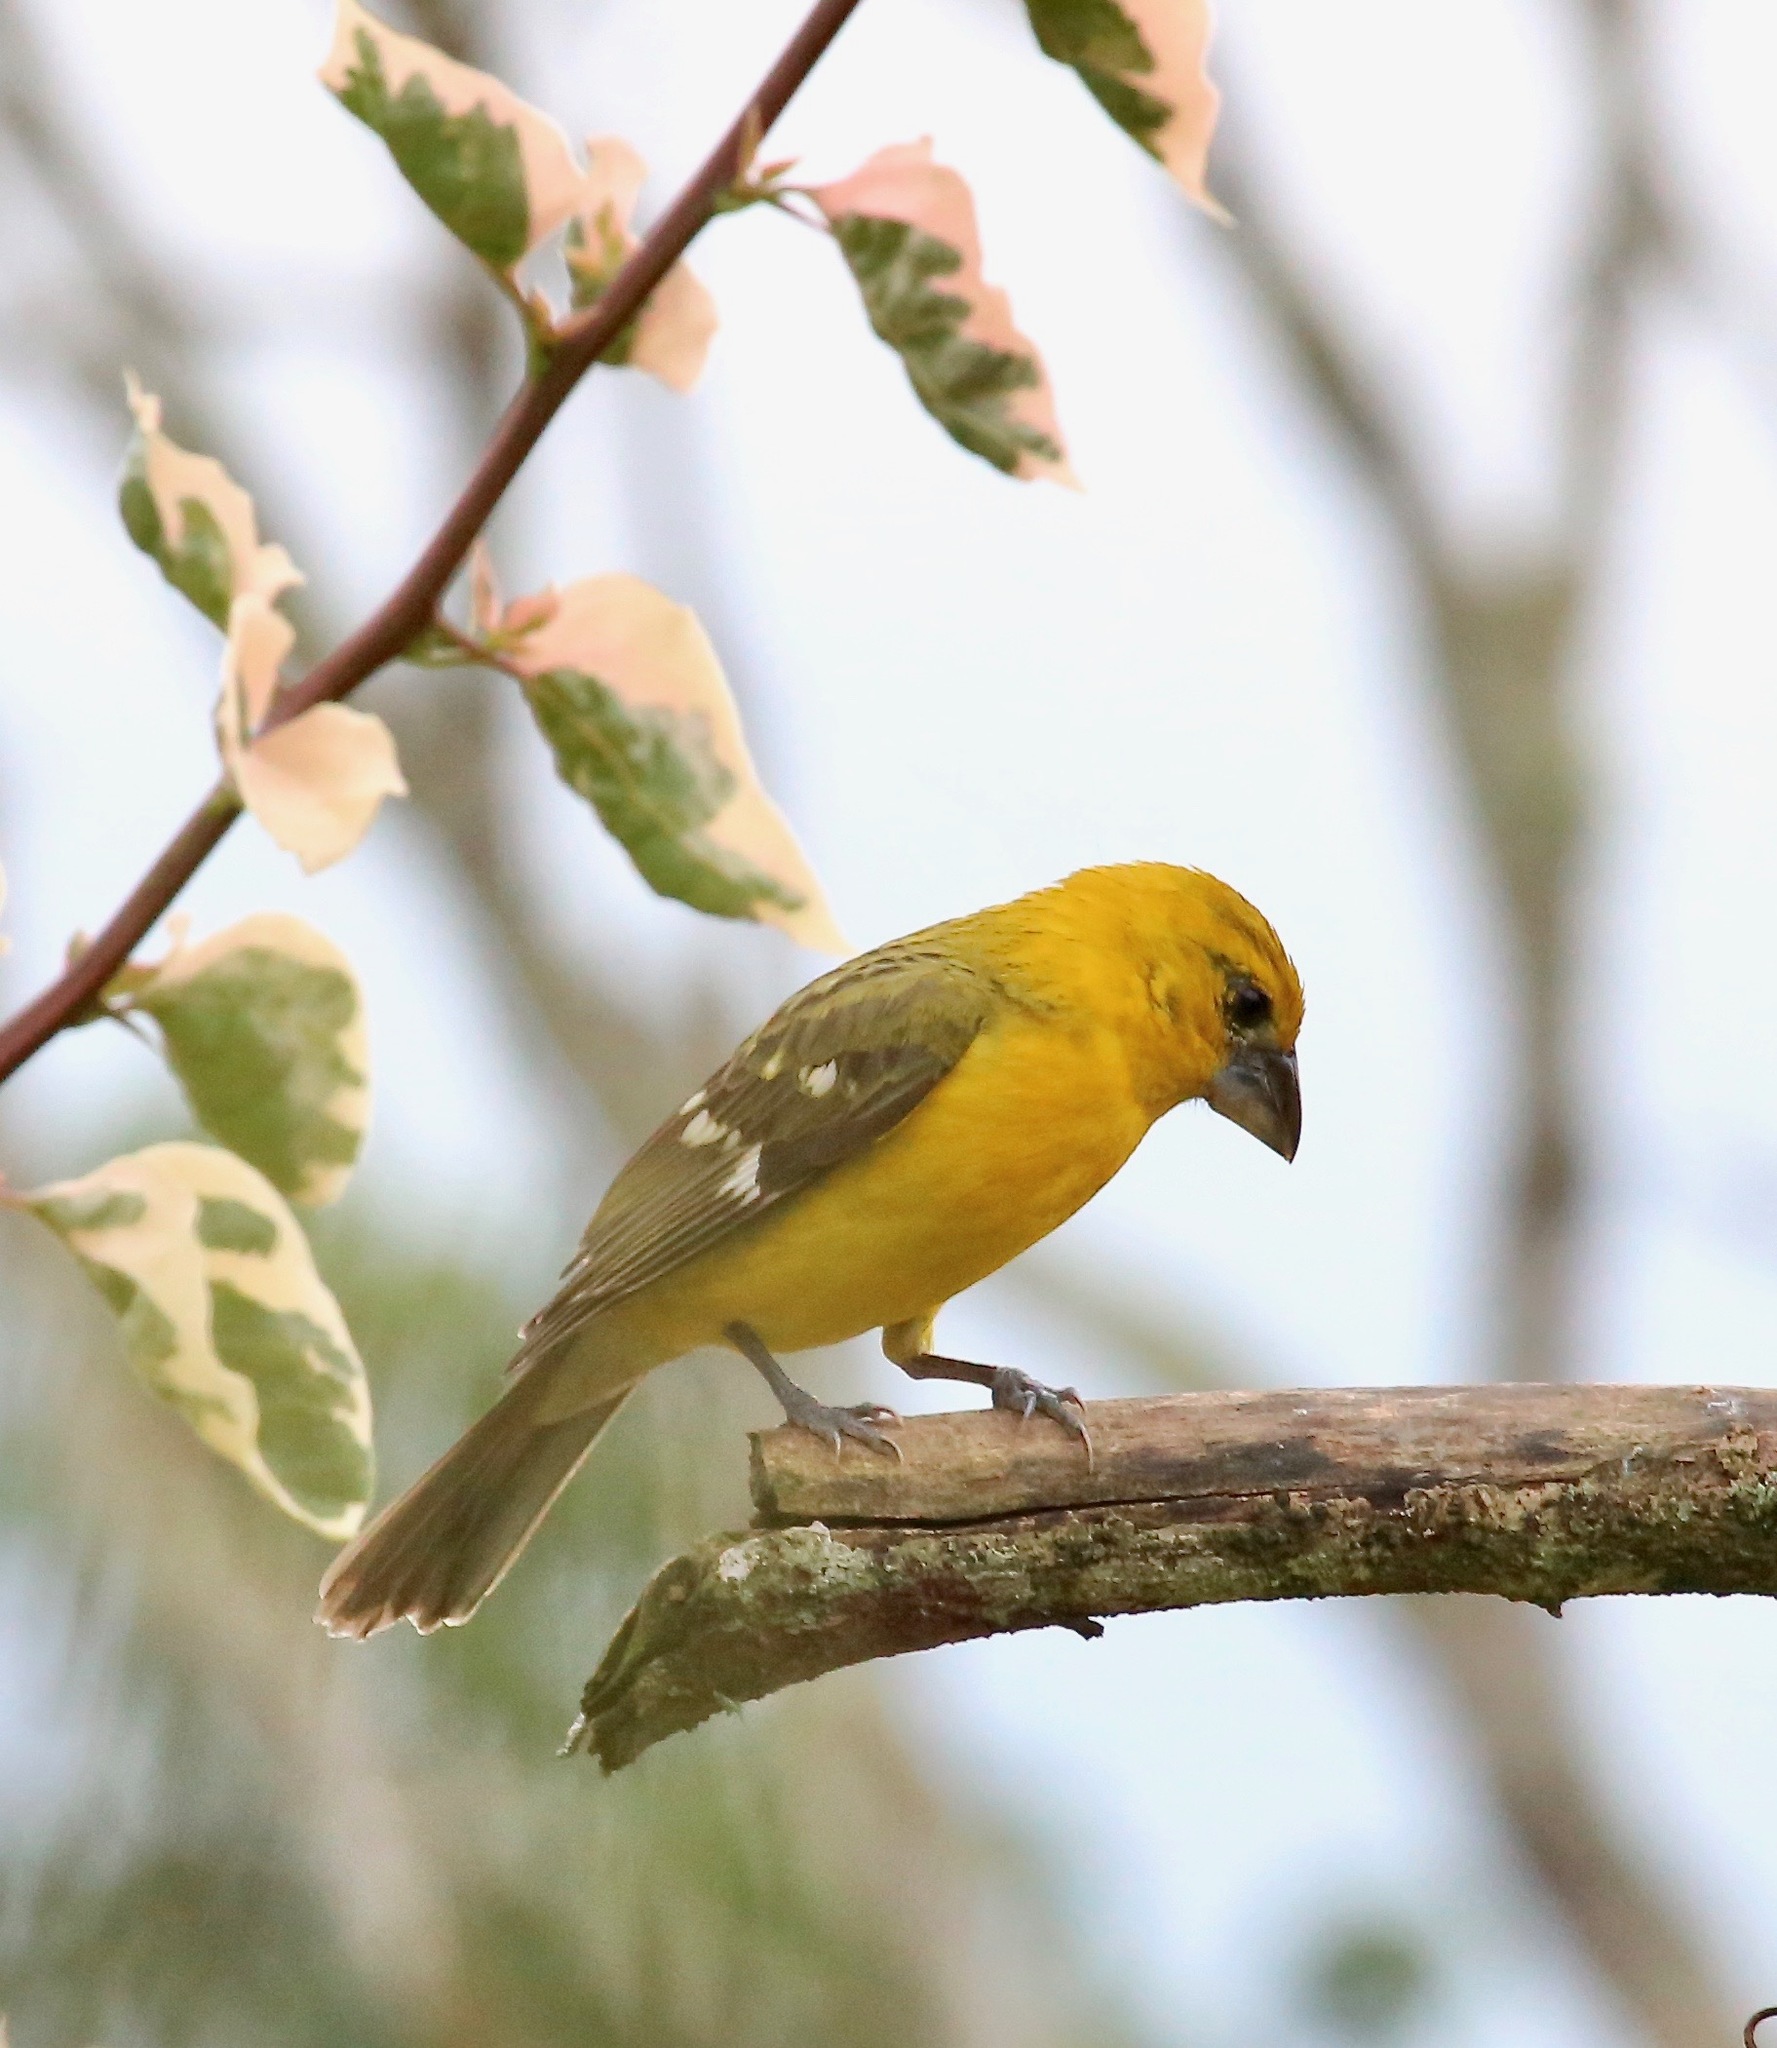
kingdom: Animalia
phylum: Chordata
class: Aves
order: Passeriformes
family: Cardinalidae
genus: Pheucticus
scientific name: Pheucticus chrysopeplus
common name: Yellow grosbeak
